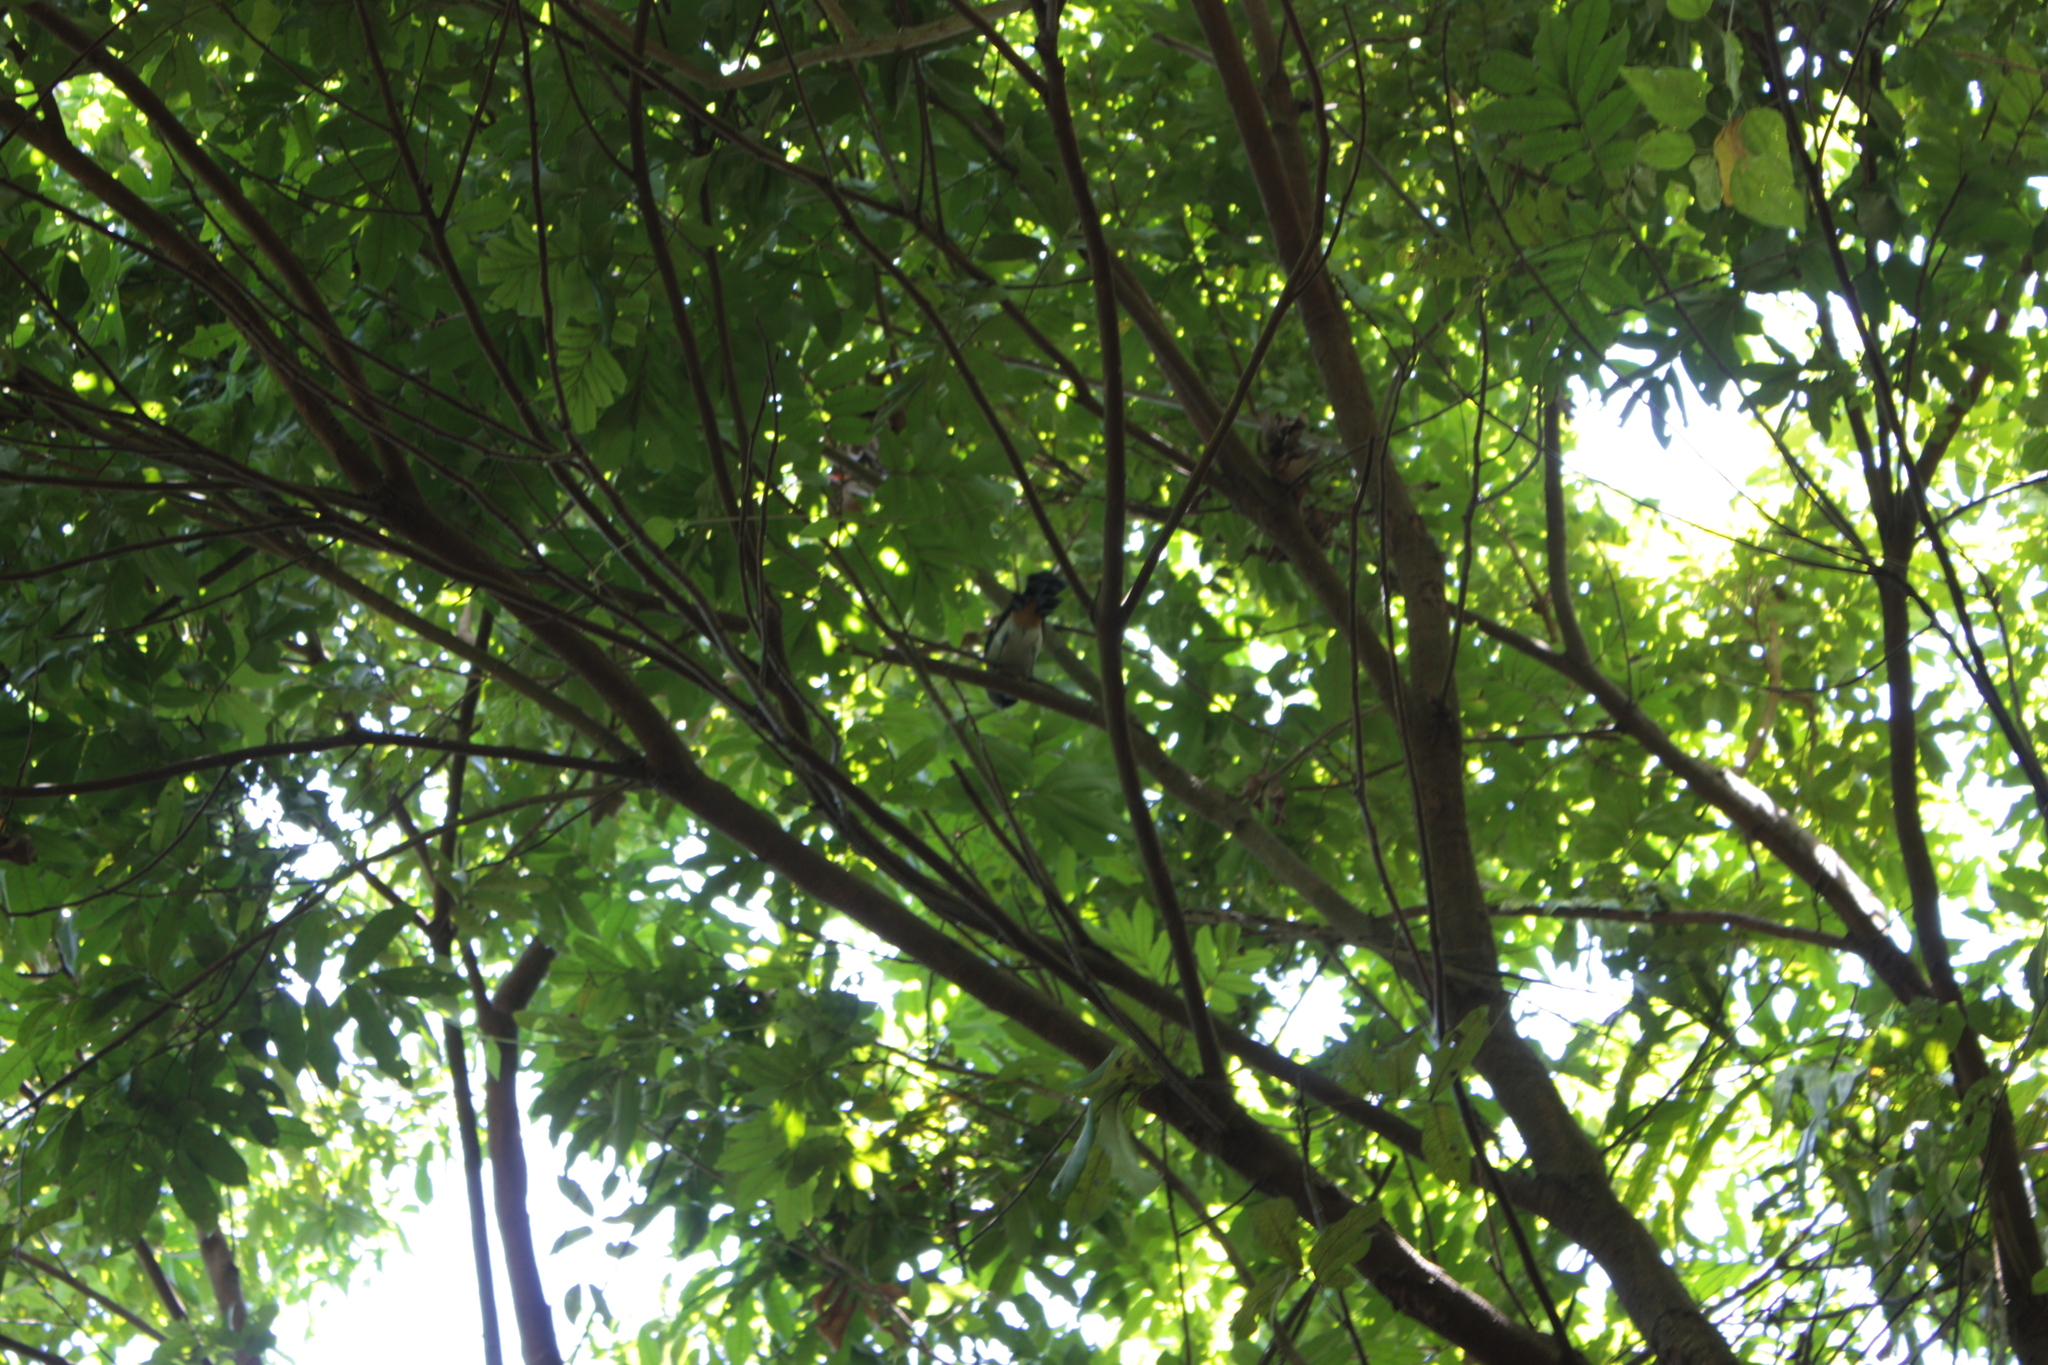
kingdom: Animalia
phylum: Chordata
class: Aves
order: Passeriformes
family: Corvidae
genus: Dendrocitta
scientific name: Dendrocitta formosae
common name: Grey treepie
